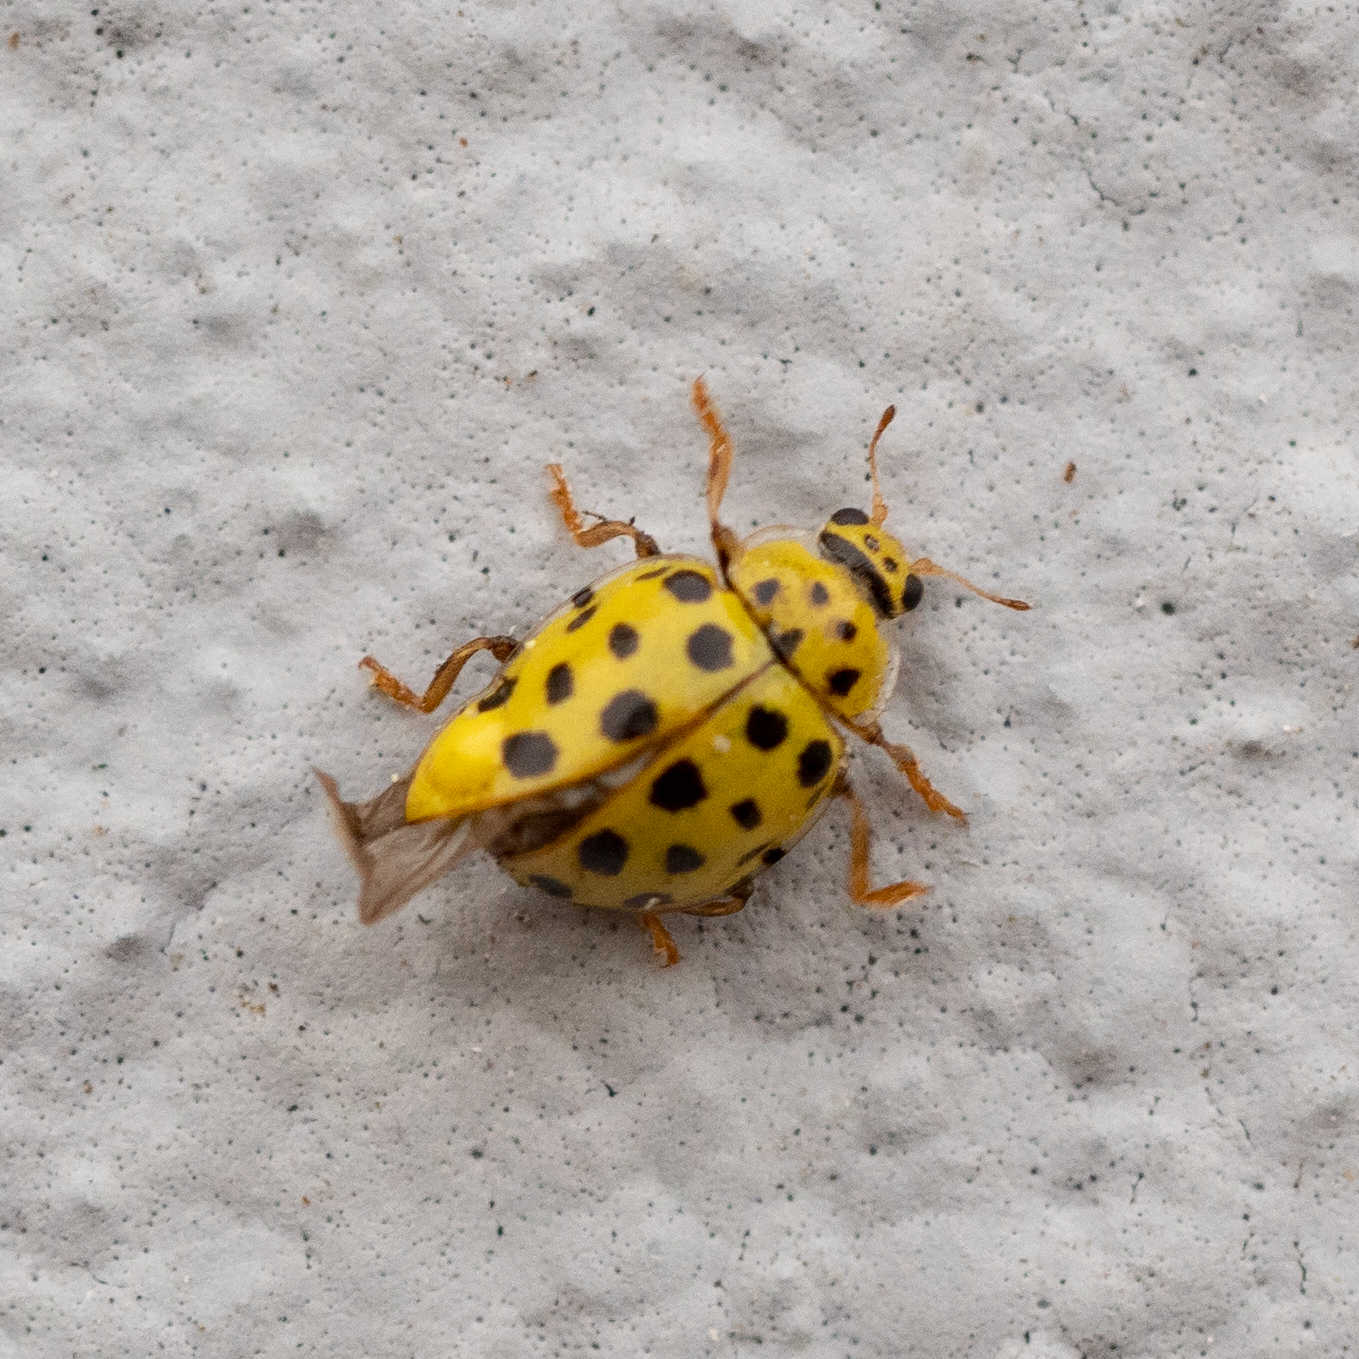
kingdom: Animalia
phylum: Arthropoda
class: Insecta
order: Coleoptera
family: Coccinellidae
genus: Psyllobora
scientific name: Psyllobora vigintiduopunctata
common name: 22-spot ladybird
